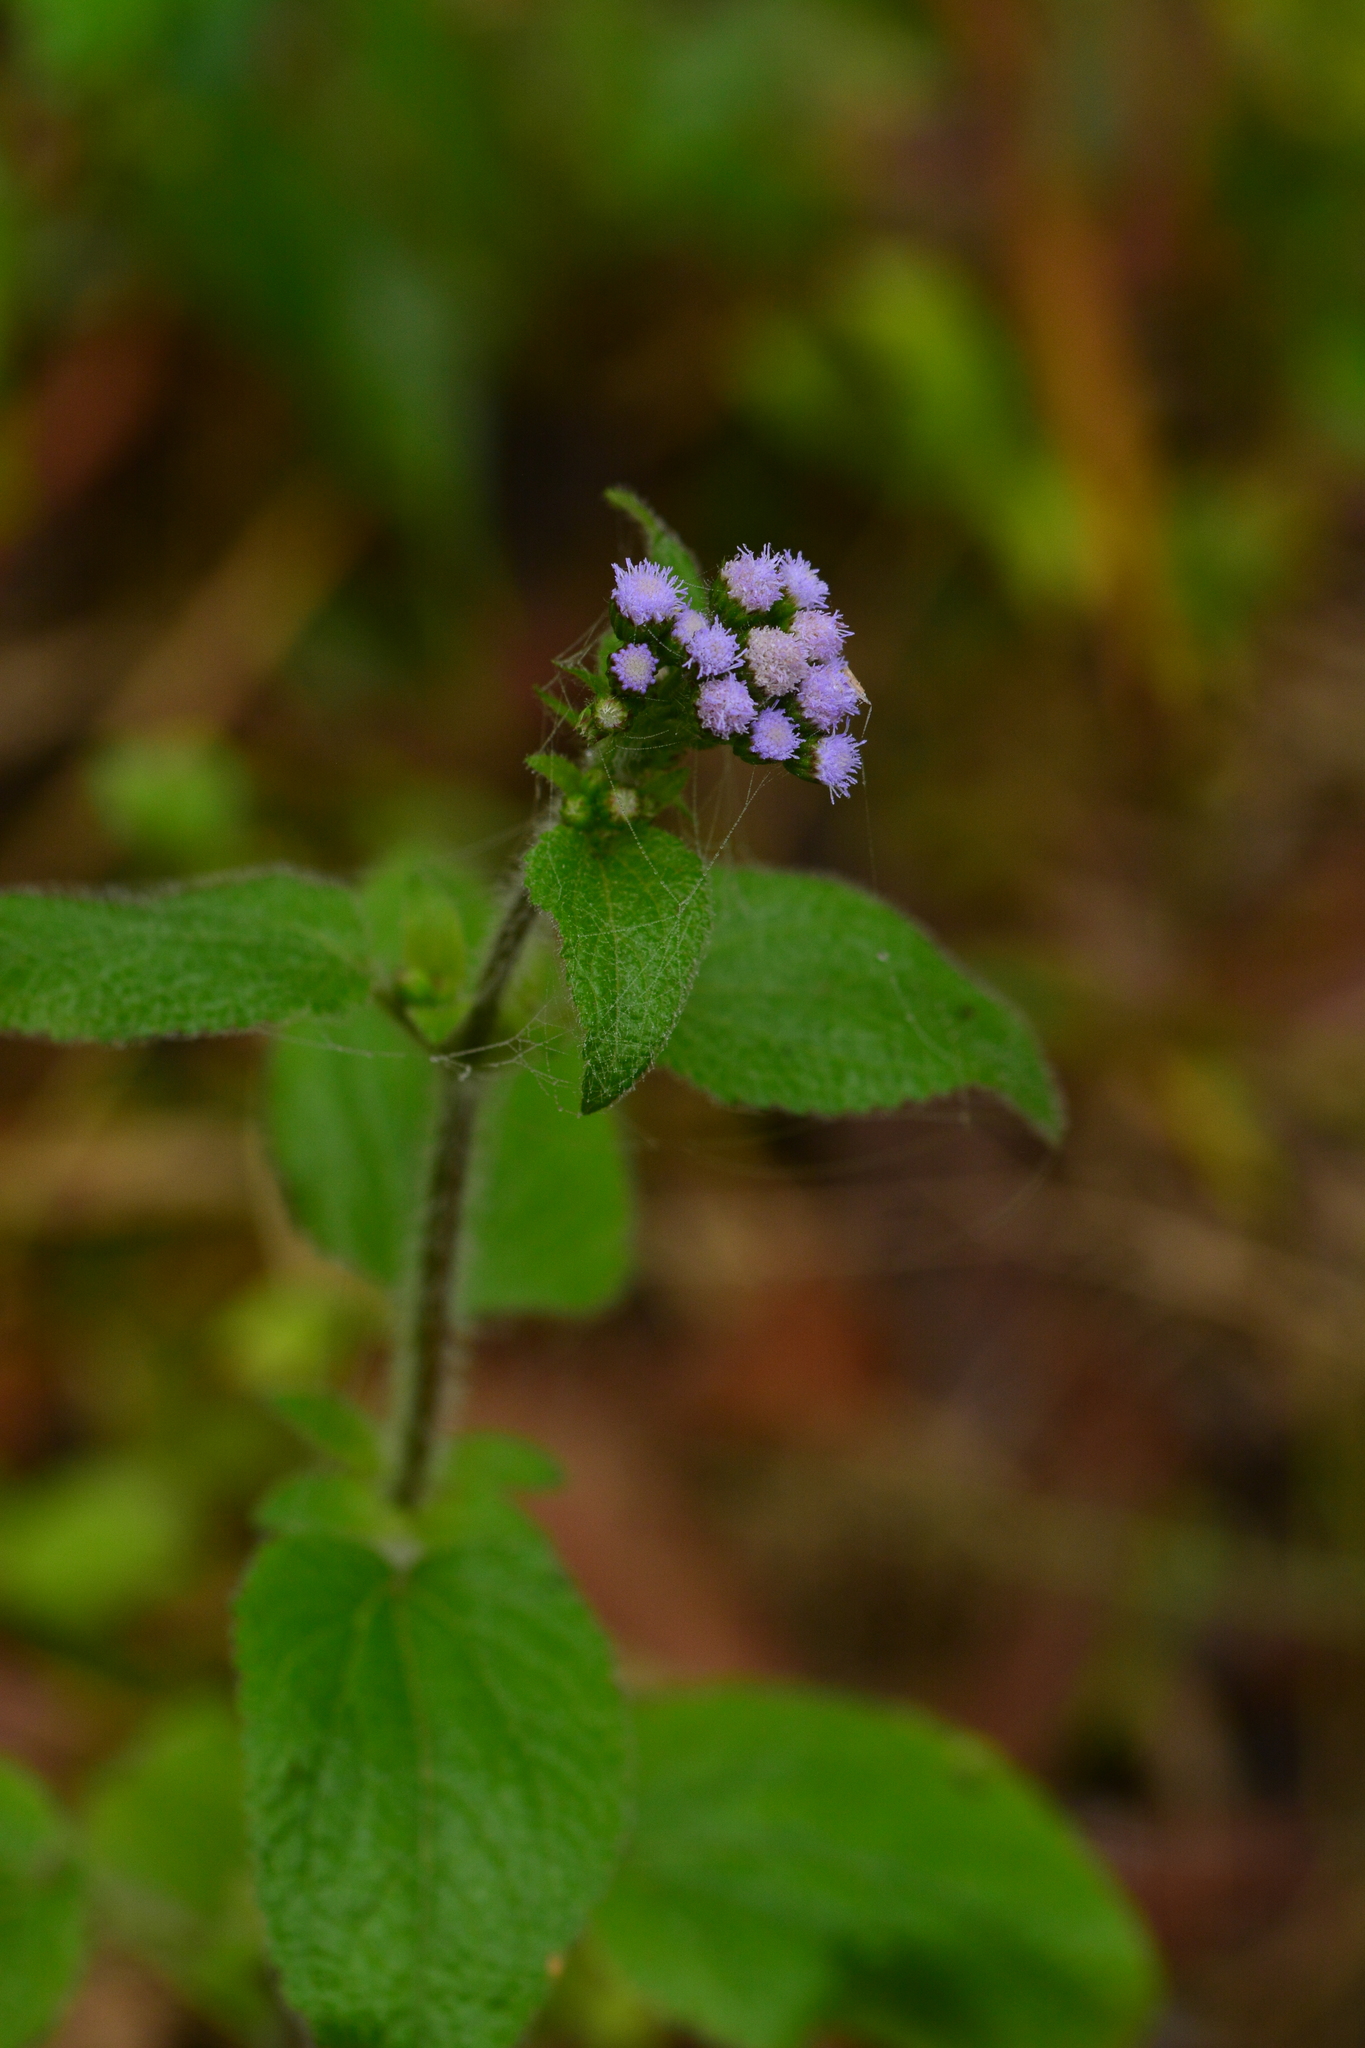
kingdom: Plantae
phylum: Tracheophyta
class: Magnoliopsida
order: Asterales
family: Asteraceae
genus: Ageratum
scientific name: Ageratum conyzoides
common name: Tropical whiteweed
